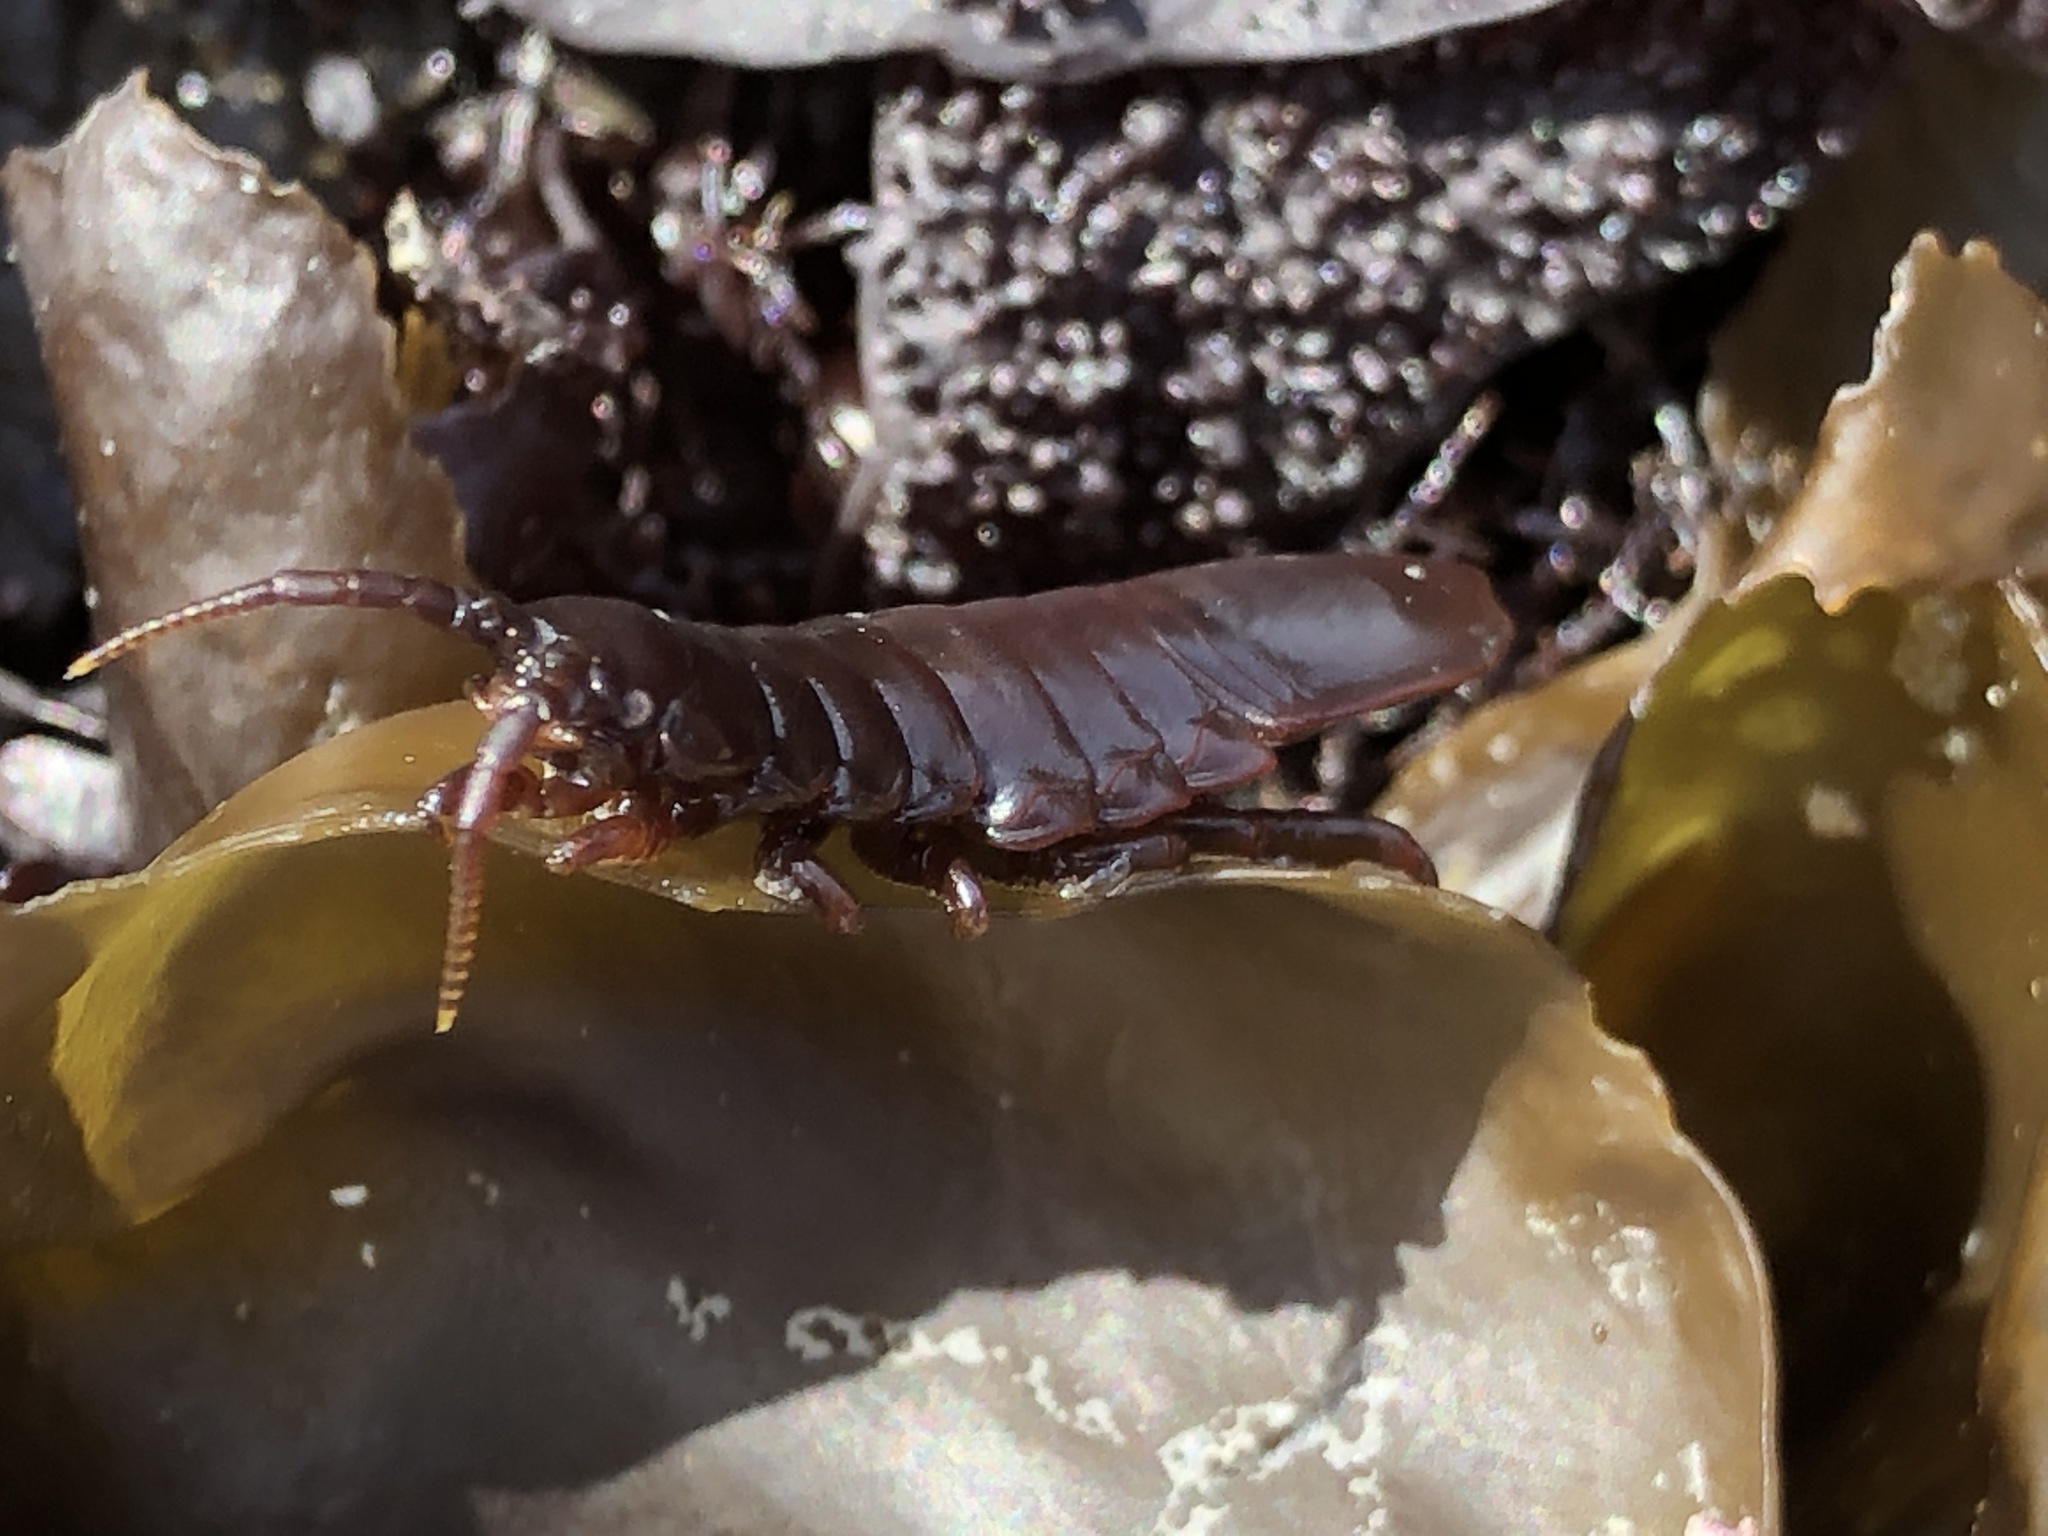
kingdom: Animalia
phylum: Arthropoda
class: Malacostraca
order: Isopoda
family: Idoteidae
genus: Pentidotea
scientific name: Pentidotea wosnesenskii
